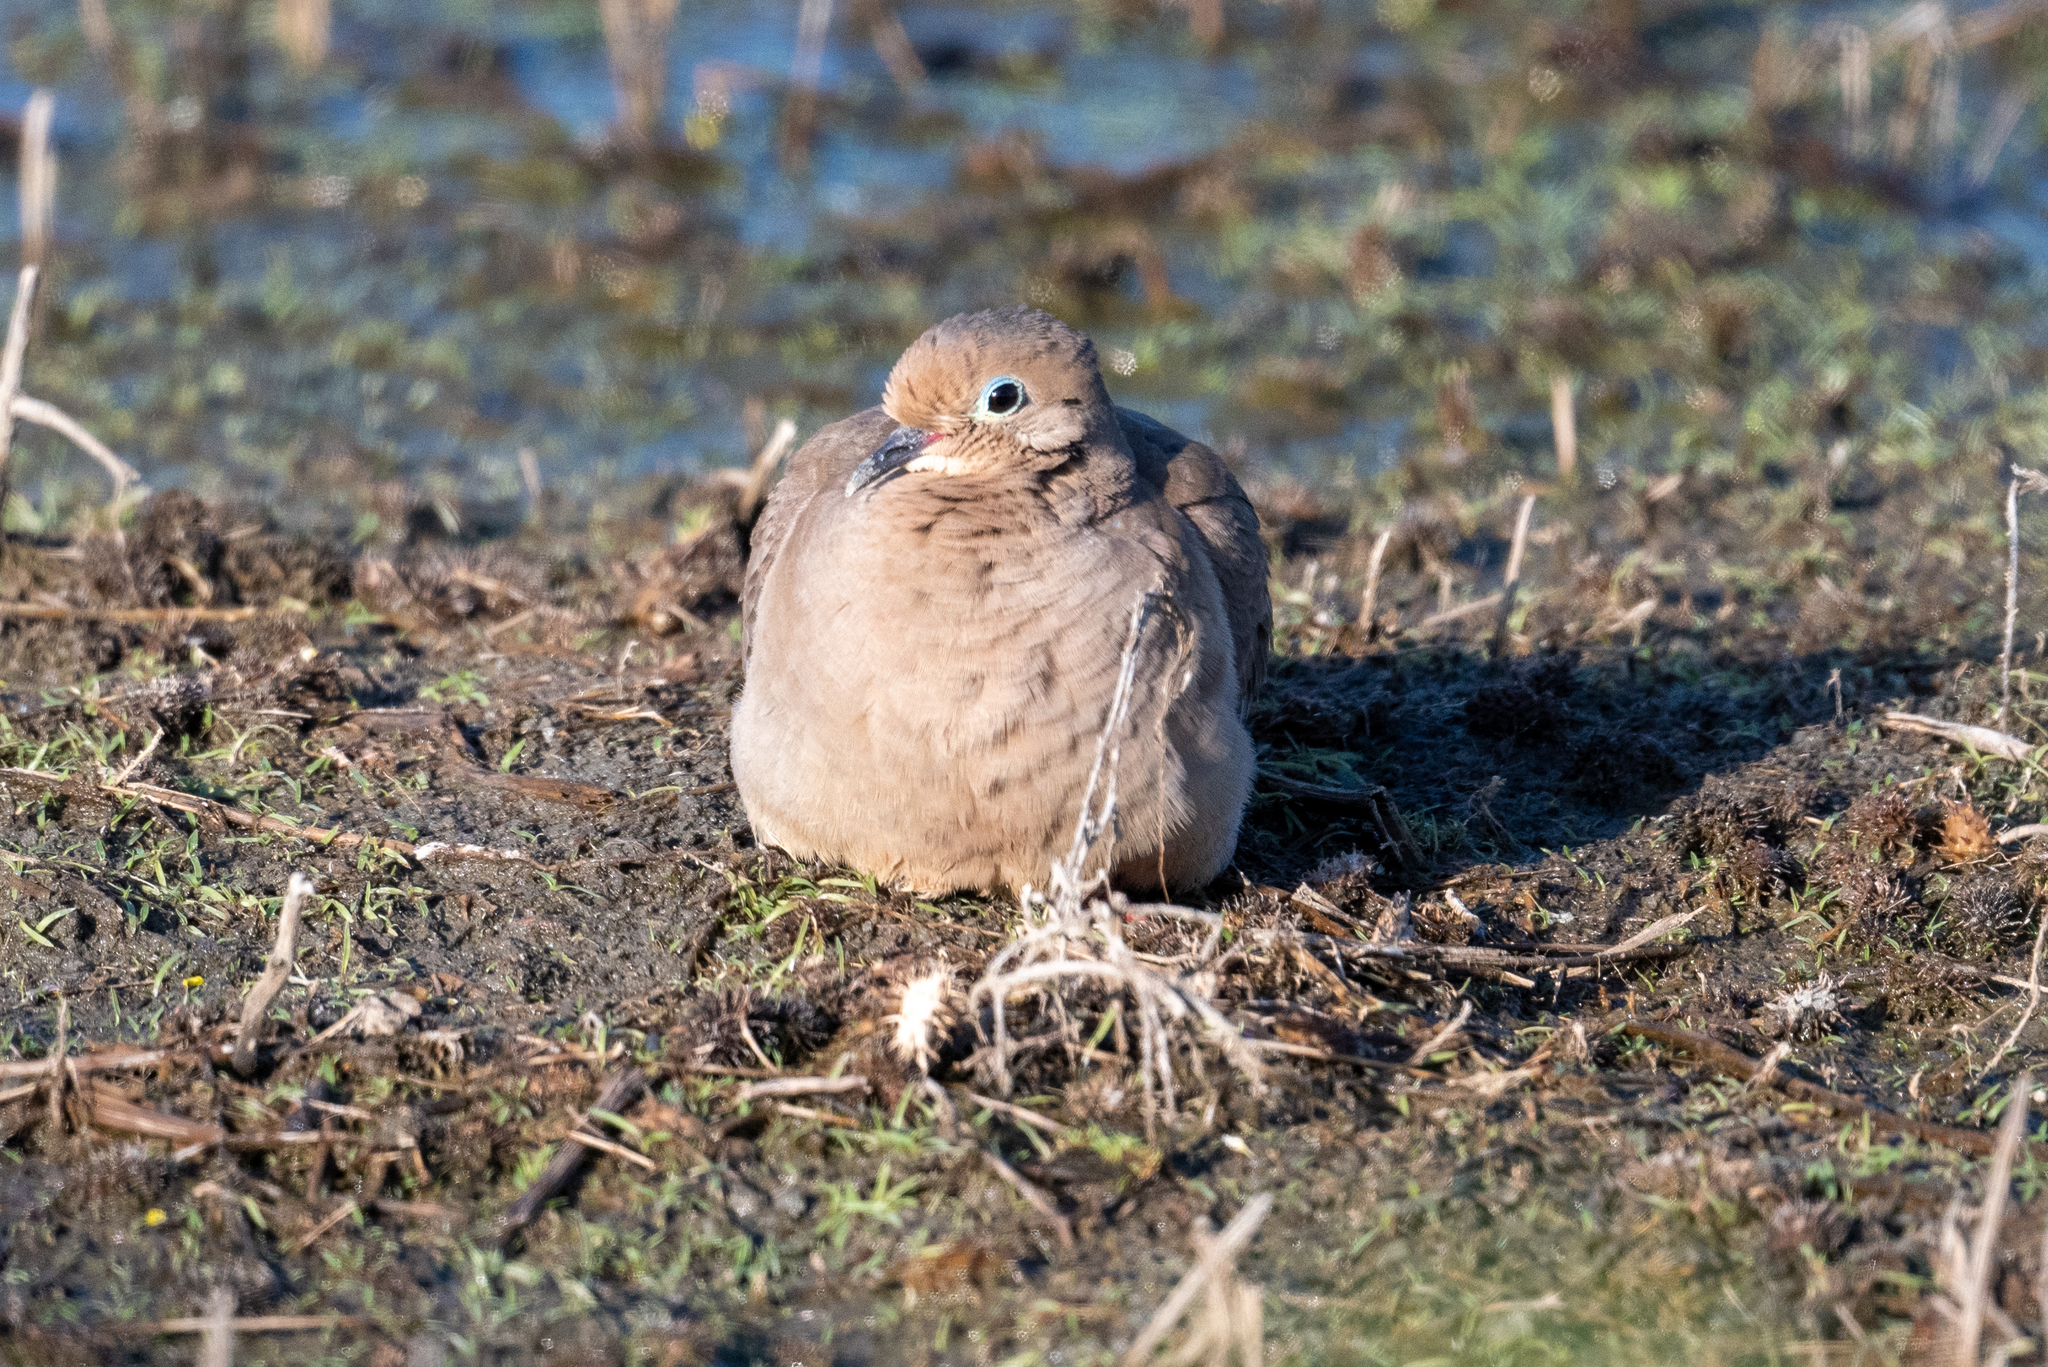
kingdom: Animalia
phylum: Chordata
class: Aves
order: Columbiformes
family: Columbidae
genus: Zenaida
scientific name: Zenaida macroura
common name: Mourning dove
